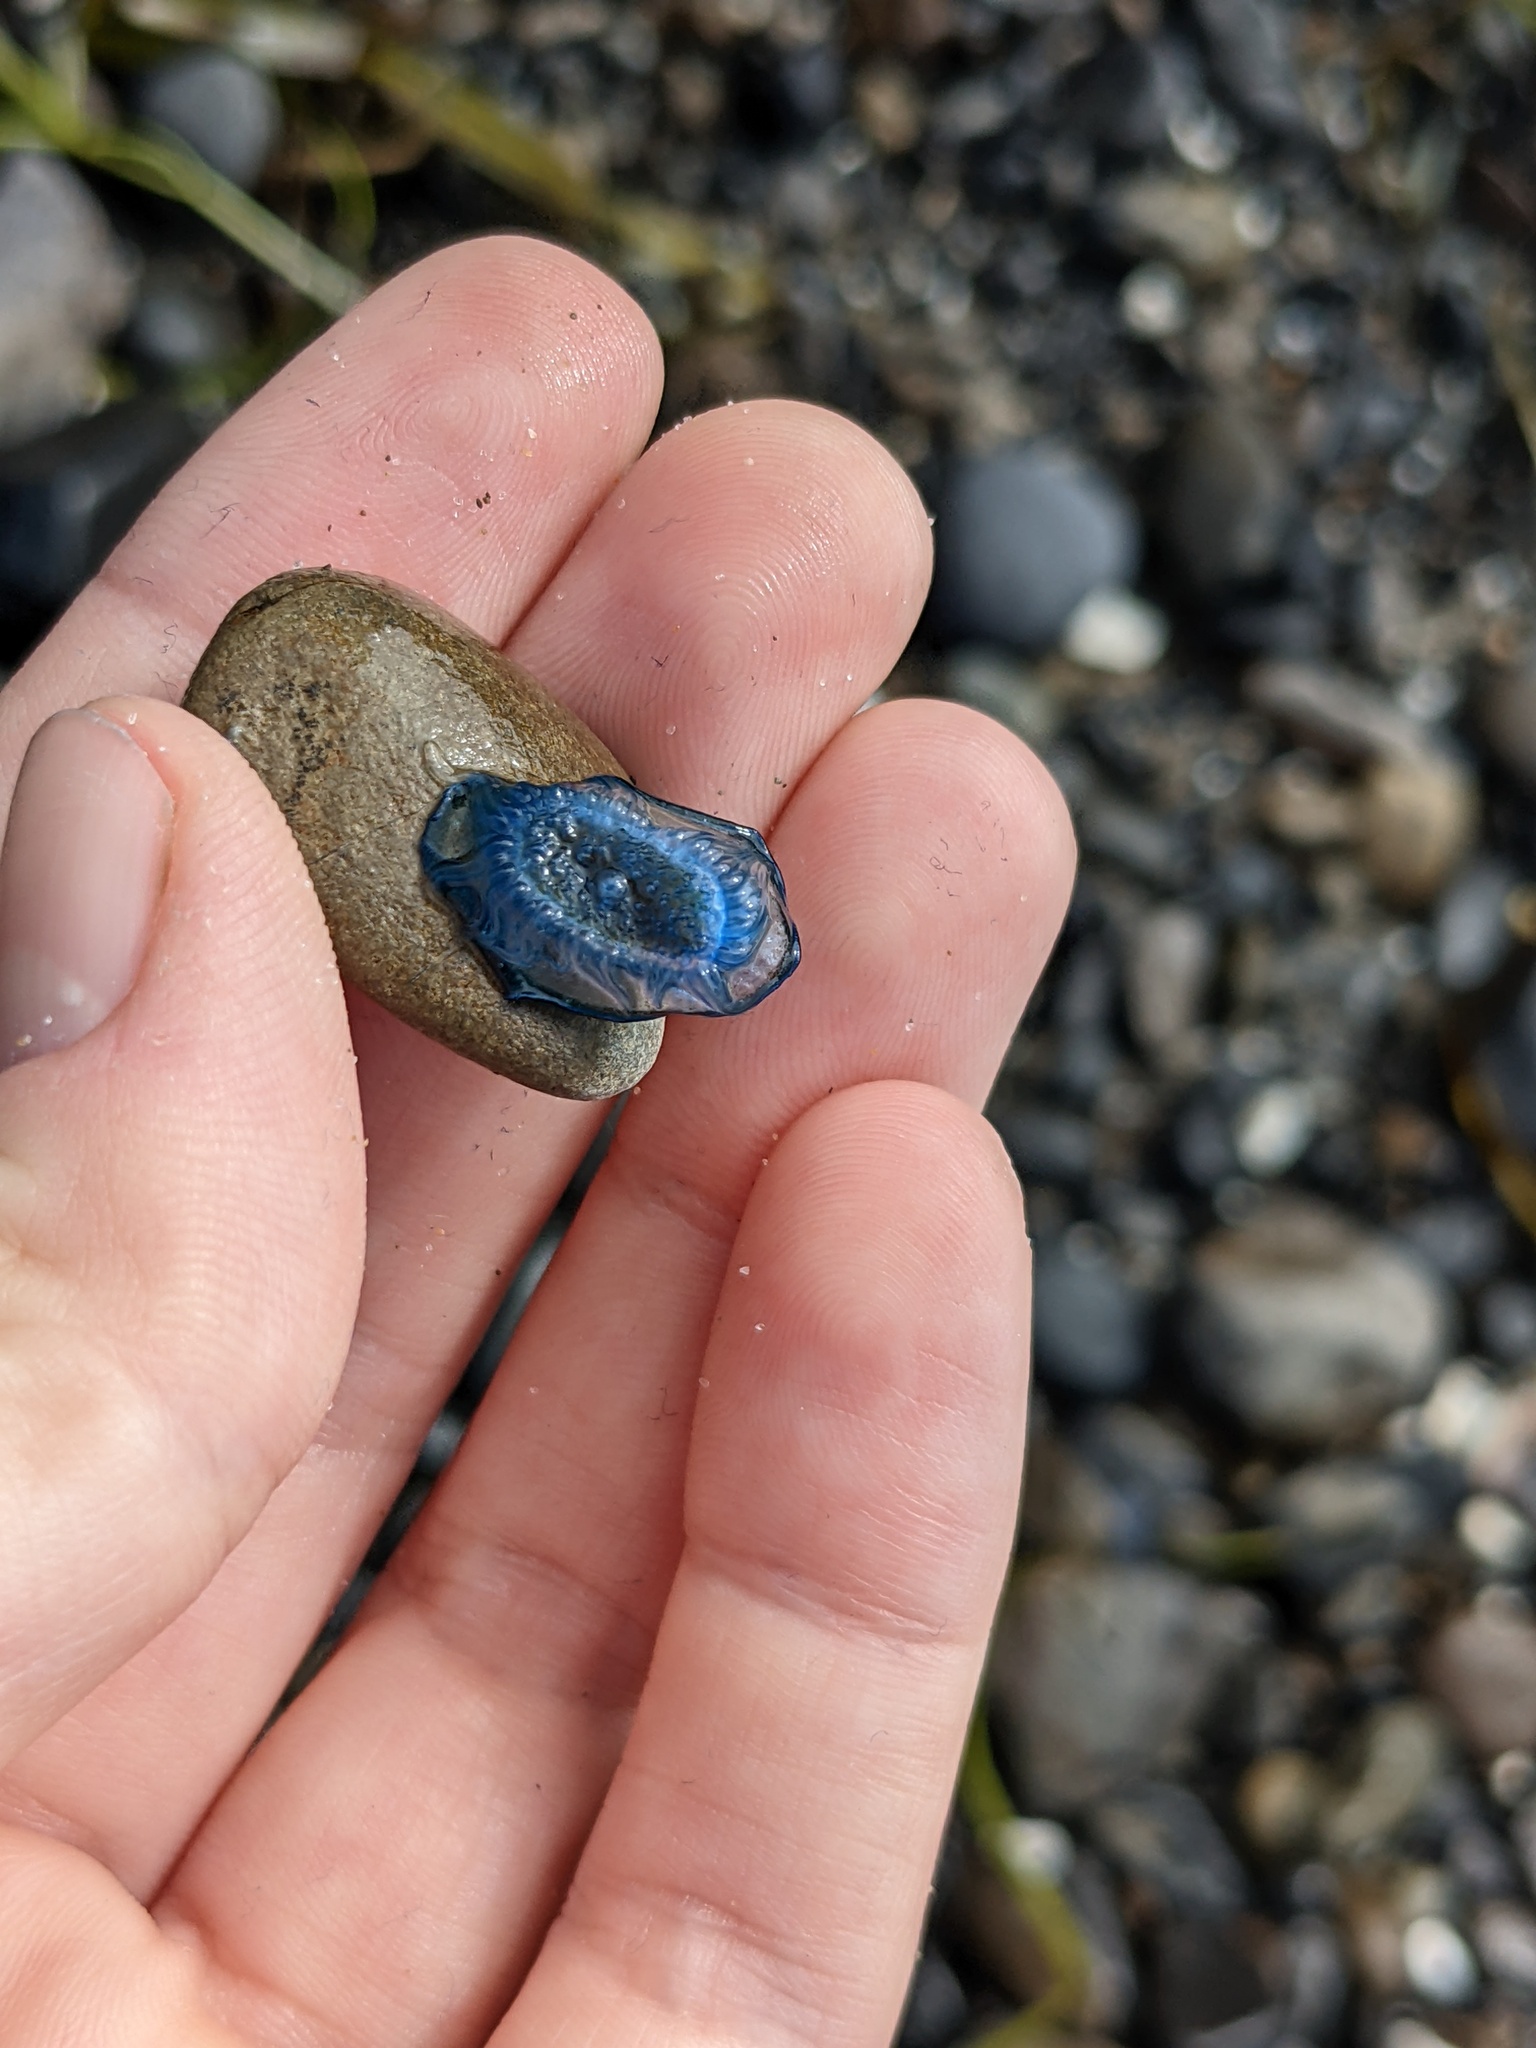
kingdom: Animalia
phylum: Cnidaria
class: Hydrozoa
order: Anthoathecata
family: Porpitidae
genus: Velella
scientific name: Velella velella
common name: By-the-wind-sailor
